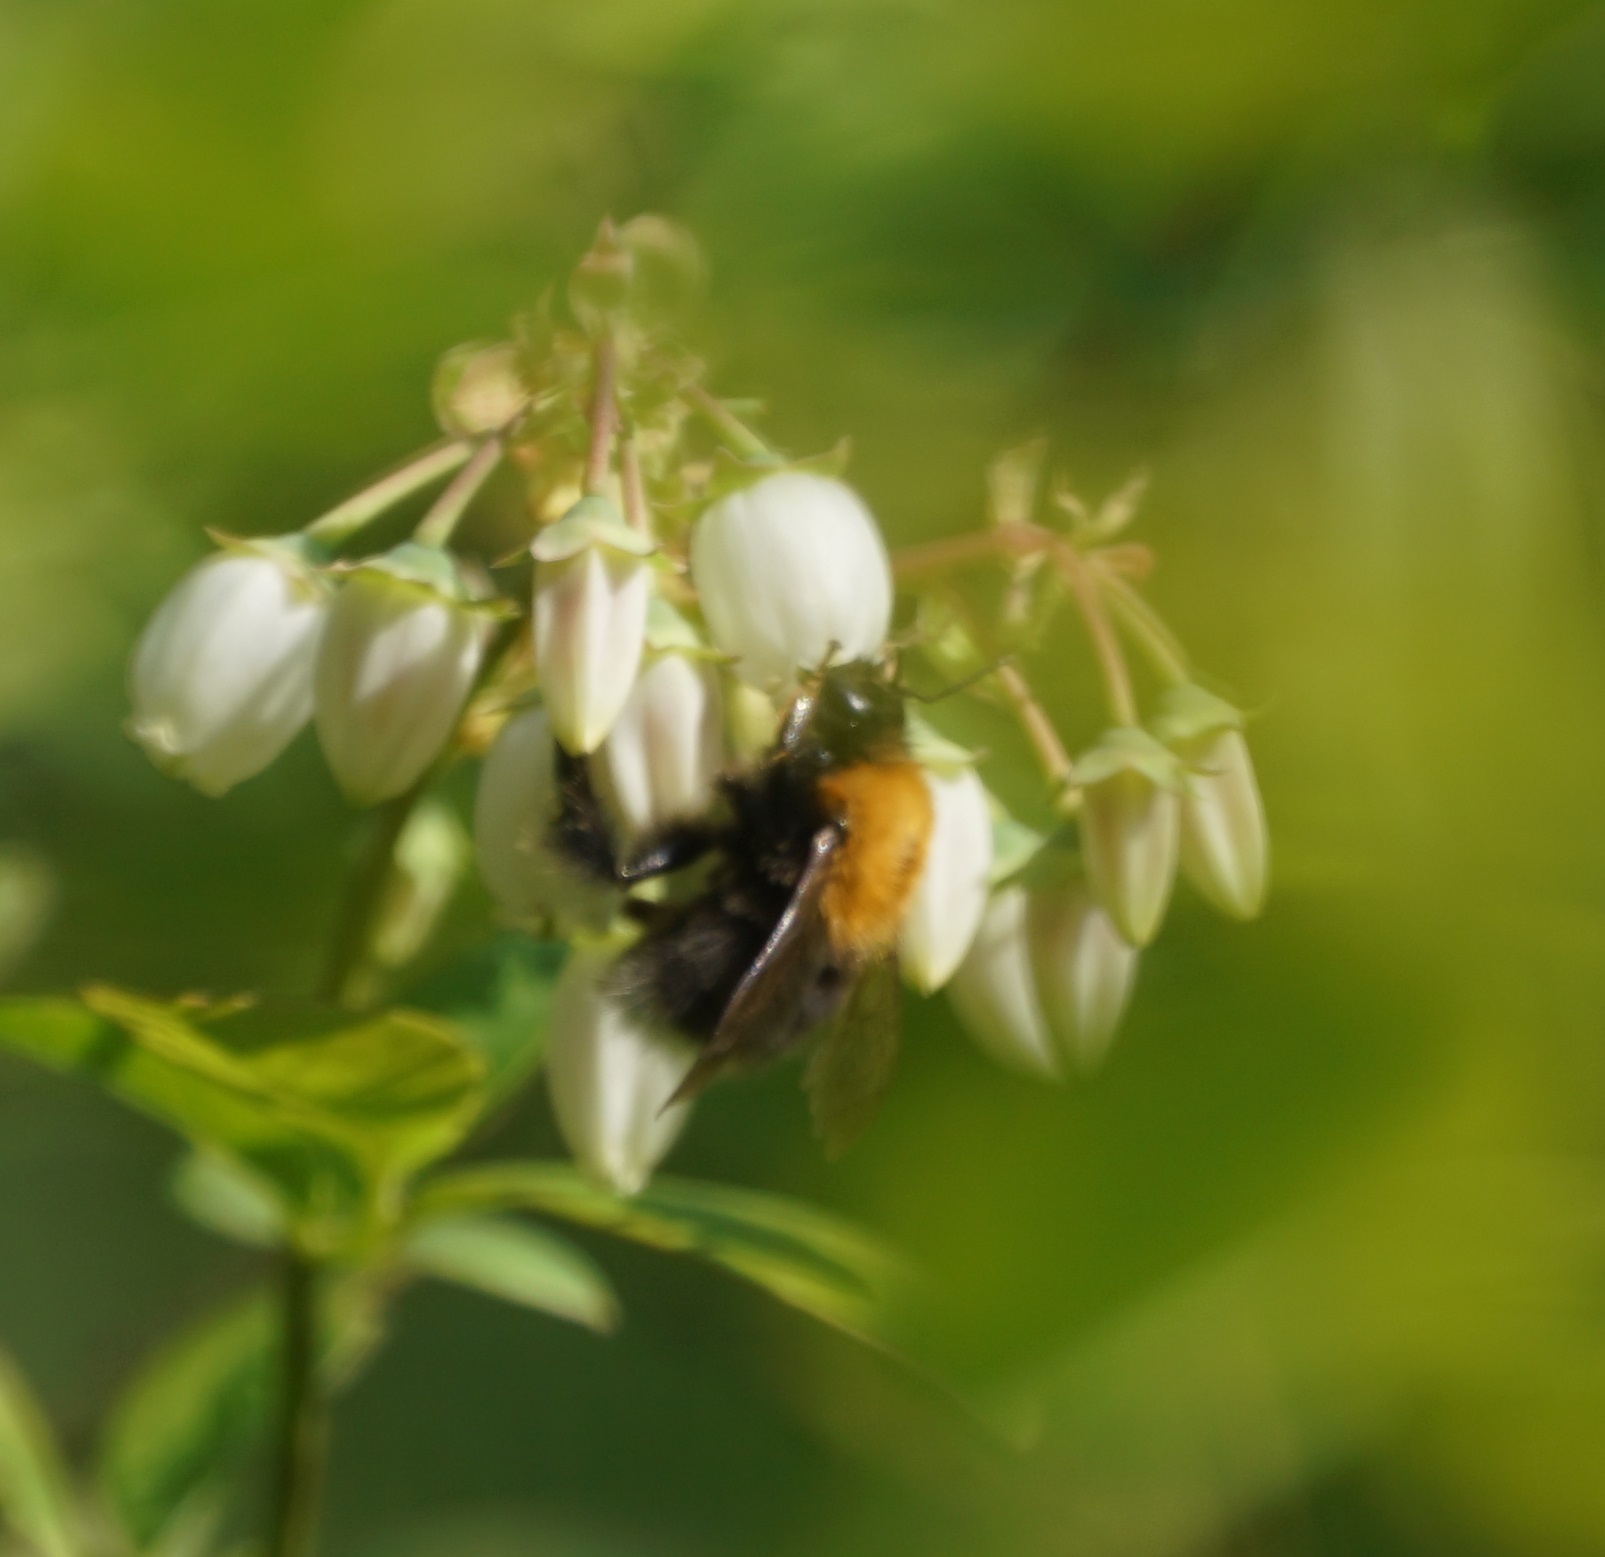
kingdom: Animalia
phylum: Arthropoda
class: Insecta
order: Hymenoptera
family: Apidae
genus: Bombus
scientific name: Bombus hypnorum
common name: New garden bumblebee
